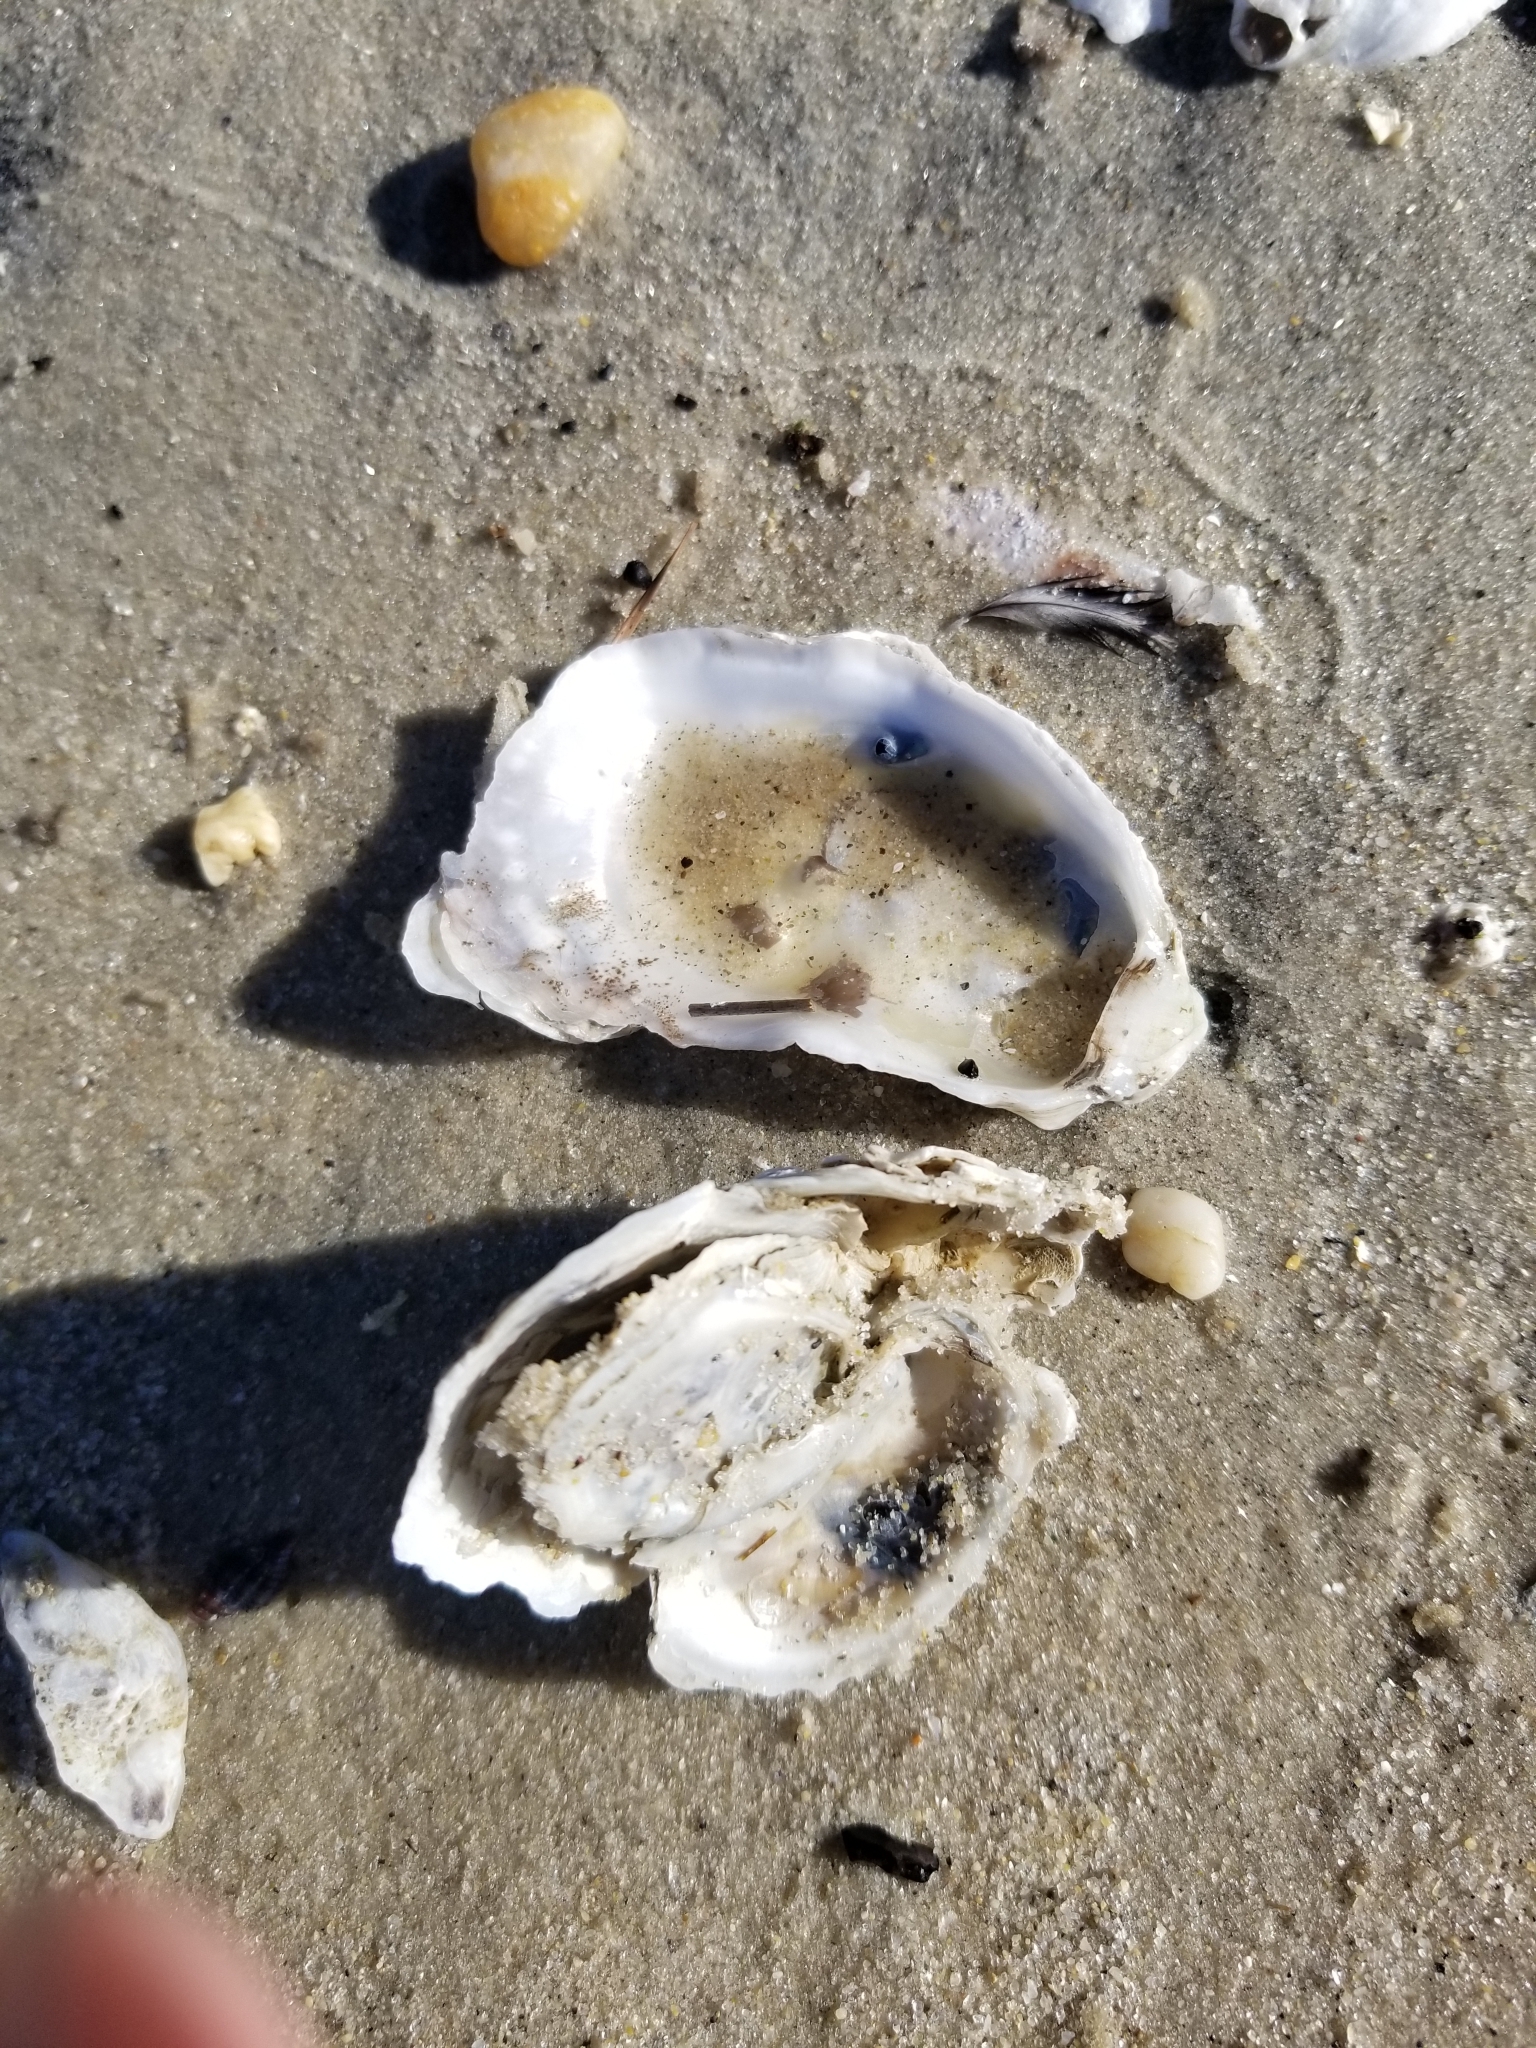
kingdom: Animalia
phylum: Mollusca
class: Bivalvia
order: Ostreida
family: Ostreidae
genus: Crassostrea
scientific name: Crassostrea virginica
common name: American oyster
